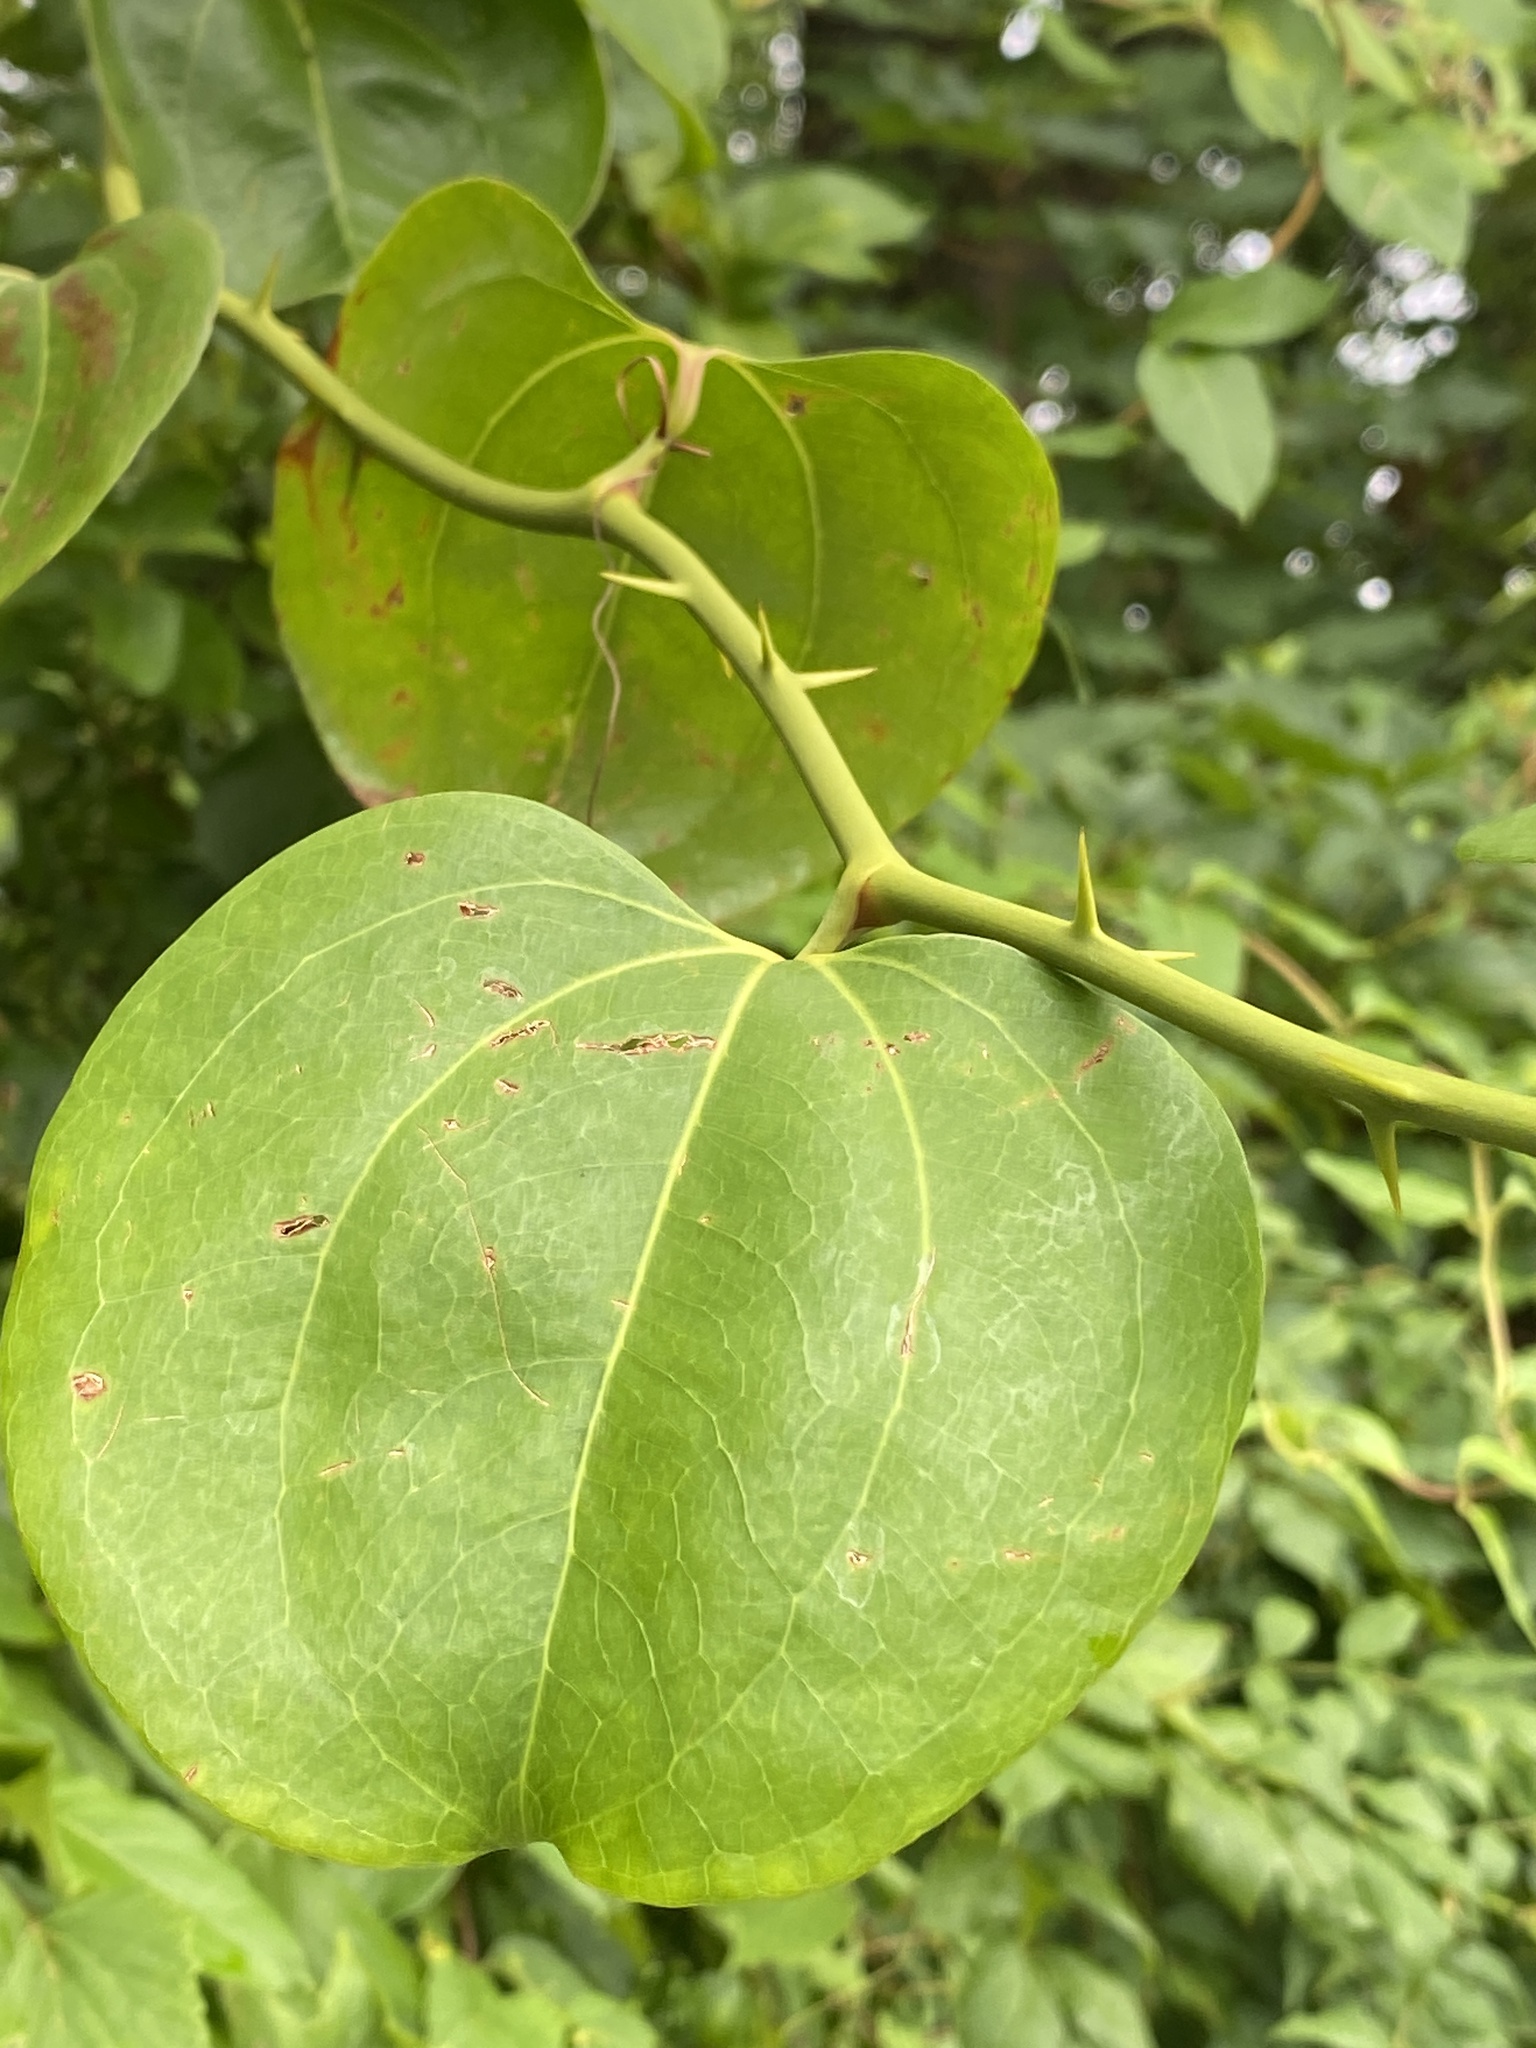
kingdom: Plantae
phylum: Tracheophyta
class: Liliopsida
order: Liliales
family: Smilacaceae
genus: Smilax
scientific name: Smilax rotundifolia
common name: Bullbriar
